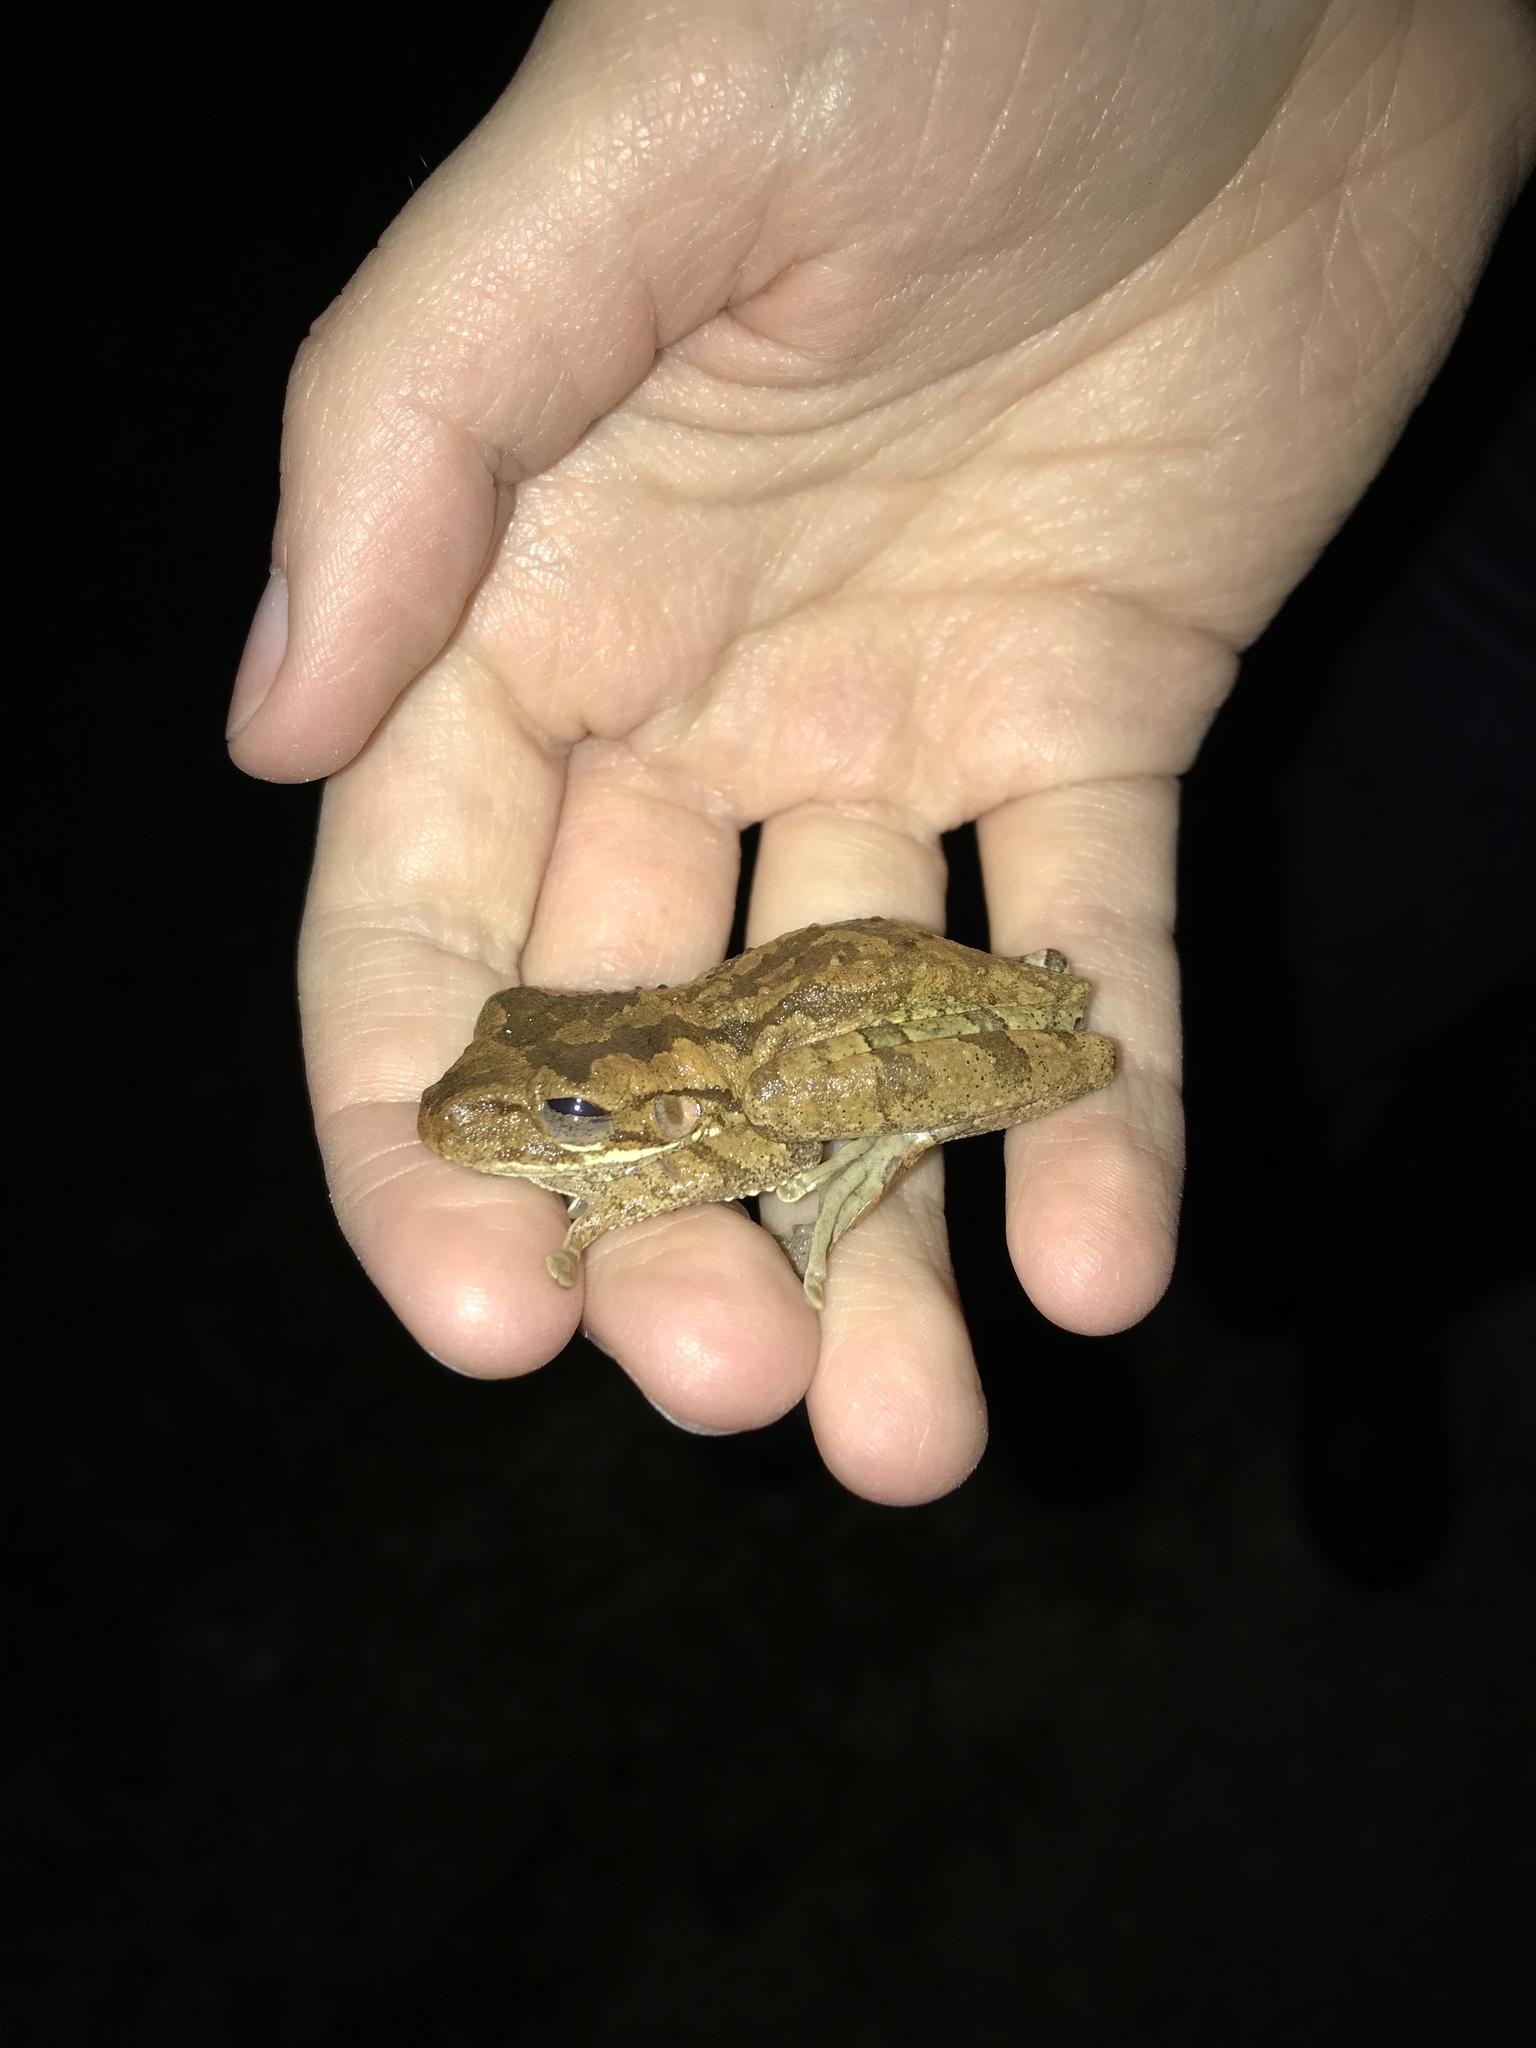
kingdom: Animalia
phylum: Chordata
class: Amphibia
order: Anura
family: Hylidae
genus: Osteopilus
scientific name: Osteopilus septentrionalis
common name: Cuban treefrog
